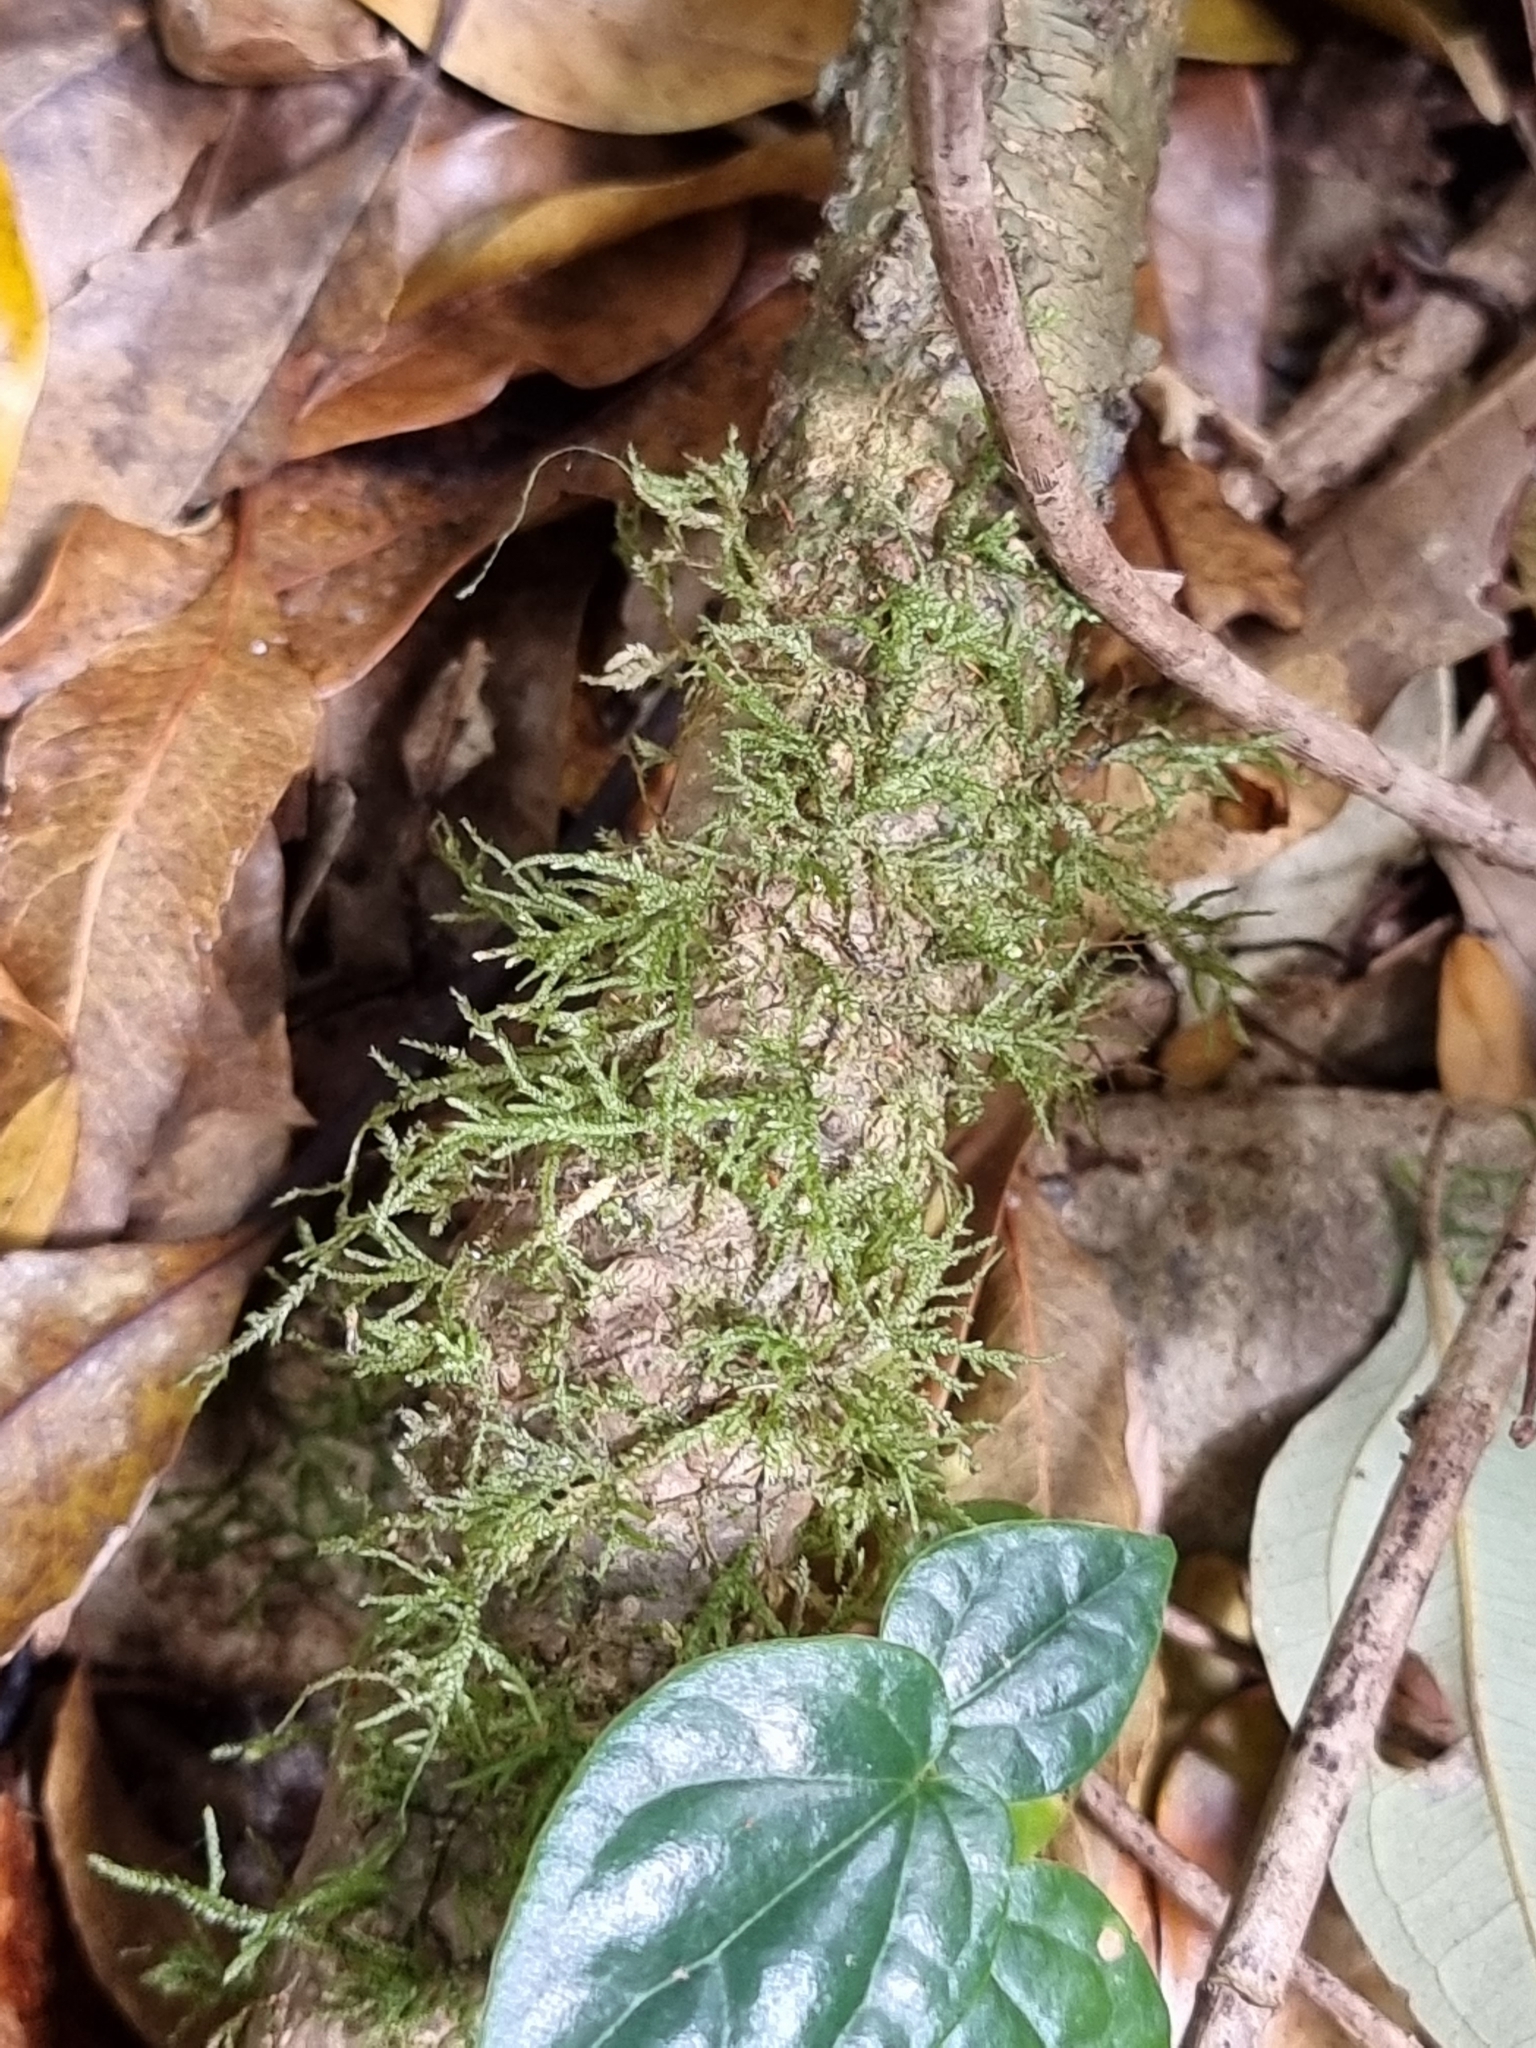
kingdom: Plantae
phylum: Bryophyta
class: Bryopsida
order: Ptychomniales
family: Ptychomniaceae
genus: Garovaglia
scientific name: Garovaglia elegans
